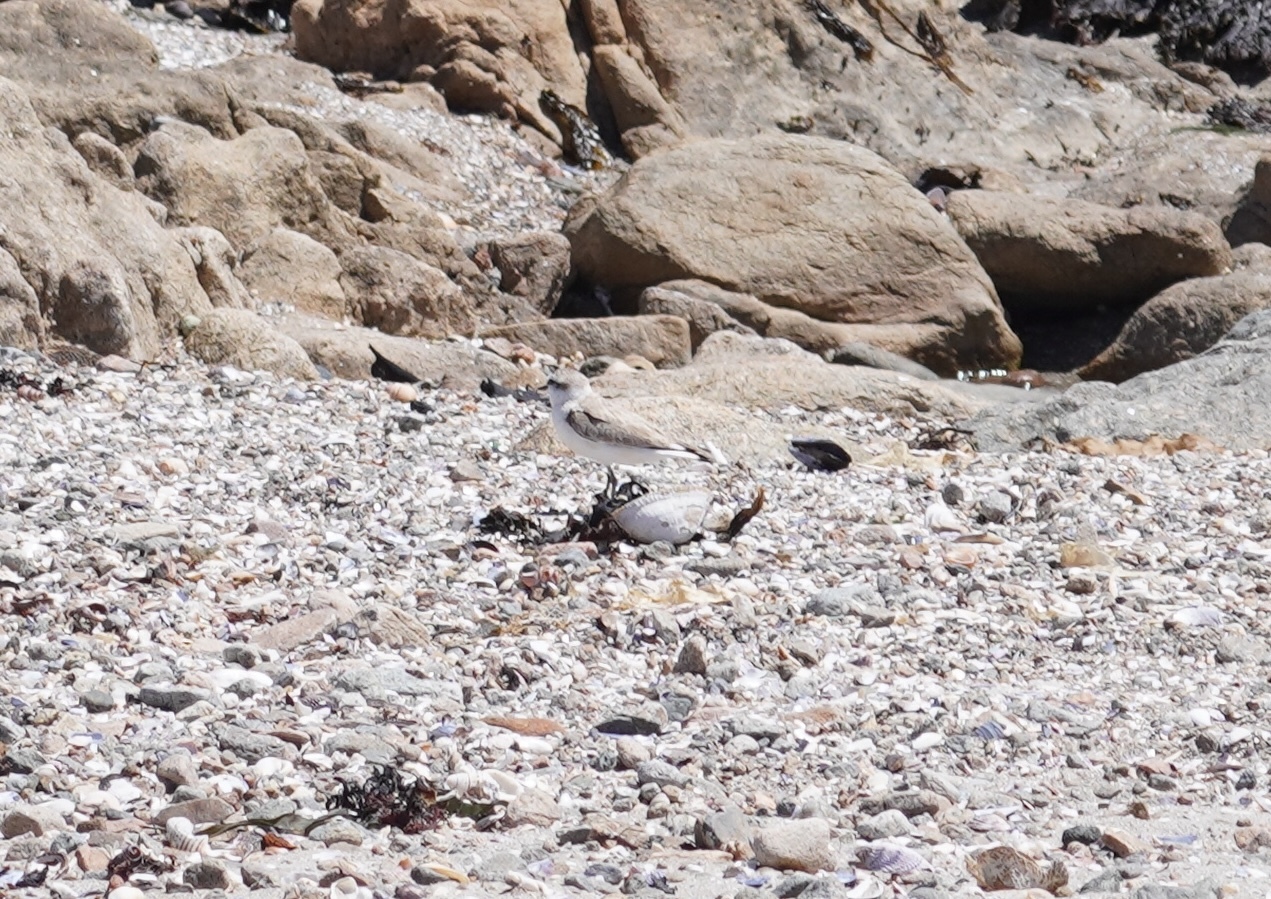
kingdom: Animalia
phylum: Chordata
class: Aves
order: Charadriiformes
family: Charadriidae
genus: Anarhynchus
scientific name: Anarhynchus
